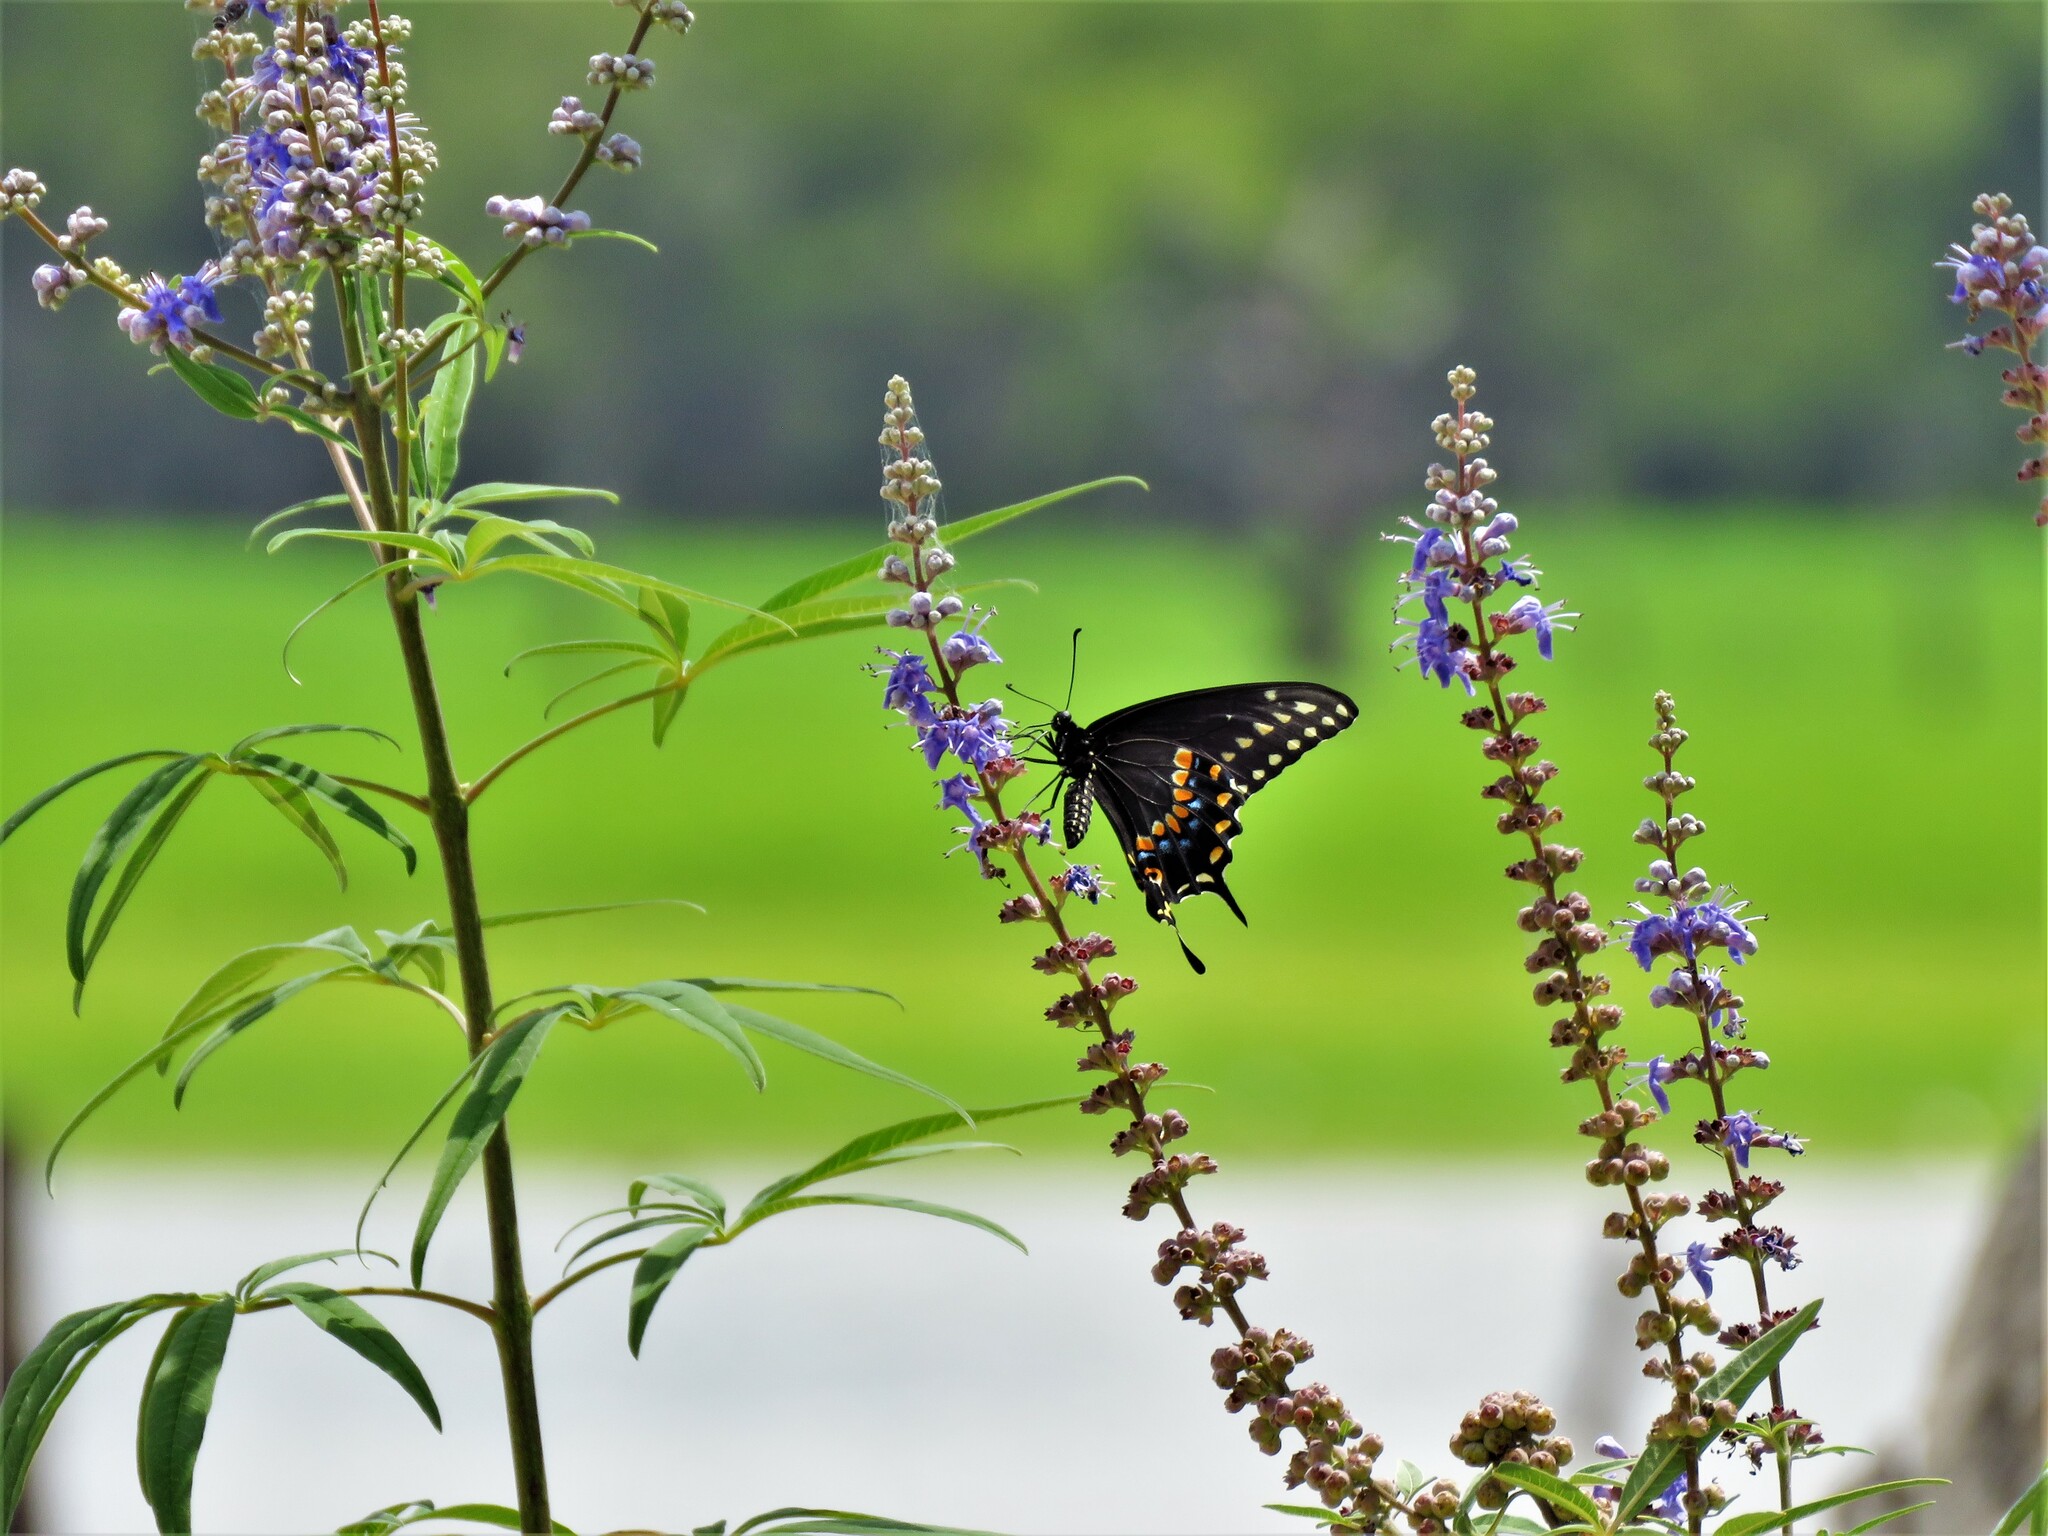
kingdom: Plantae
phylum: Tracheophyta
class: Magnoliopsida
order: Lamiales
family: Lamiaceae
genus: Vitex
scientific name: Vitex agnus-castus
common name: Chasteberry
